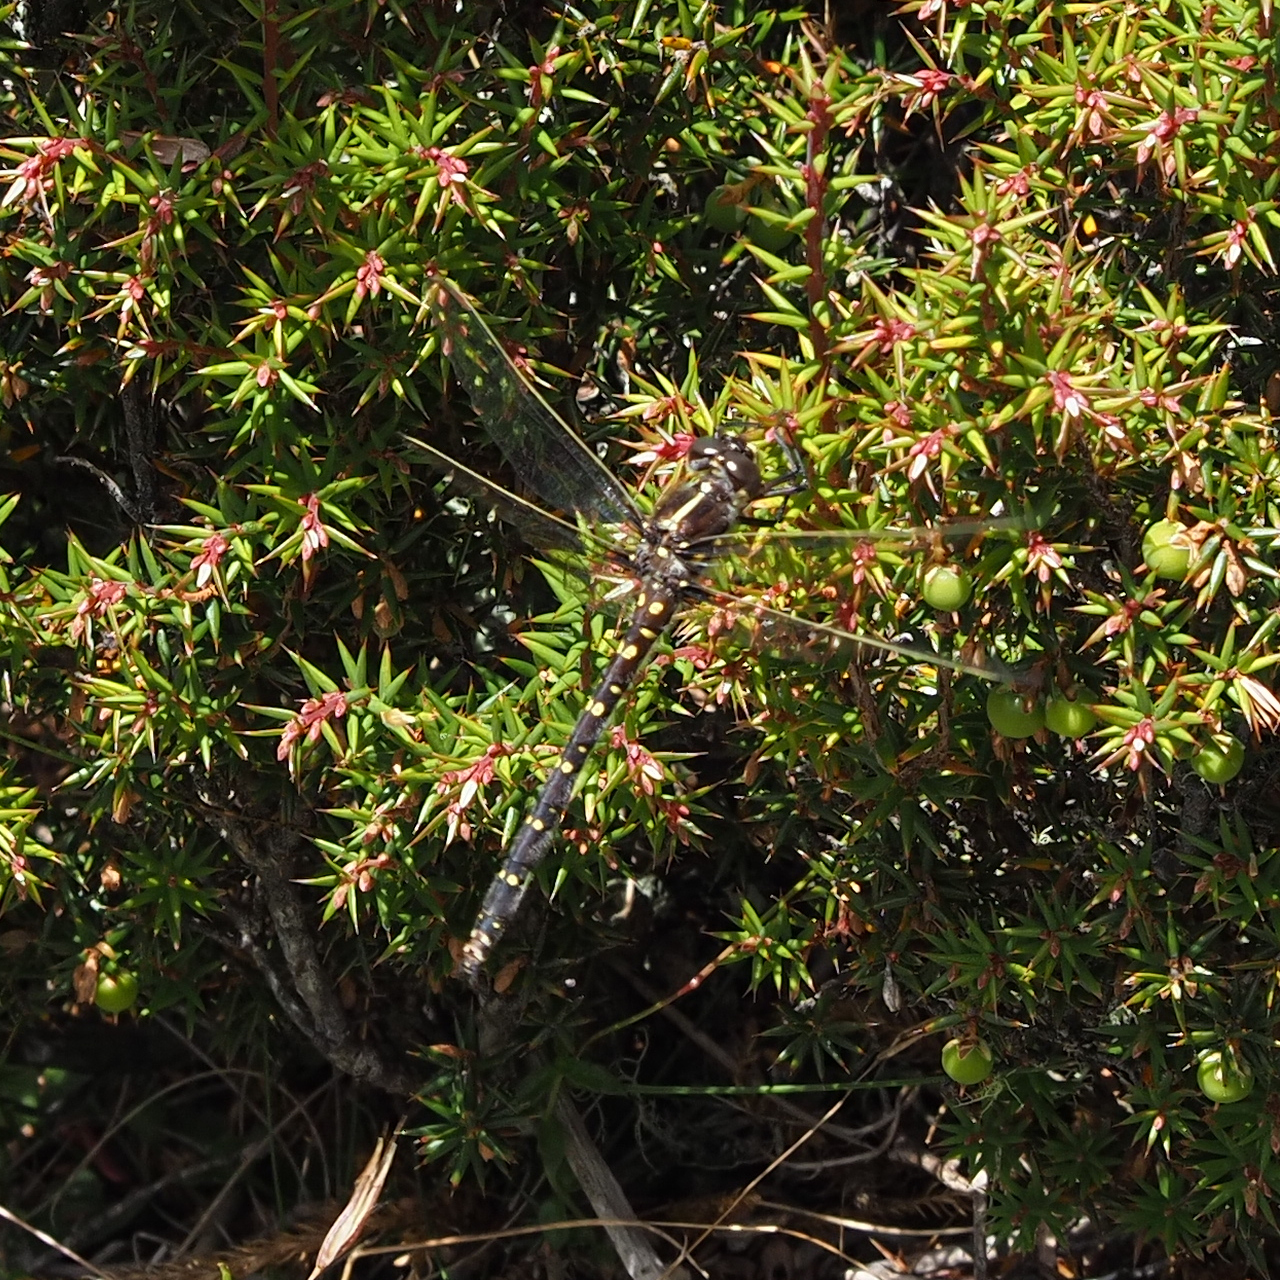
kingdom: Animalia
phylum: Arthropoda
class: Insecta
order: Odonata
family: Synthemistidae
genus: Synthemis
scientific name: Synthemis tasmanica
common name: Tasmanian swamp tigertail
